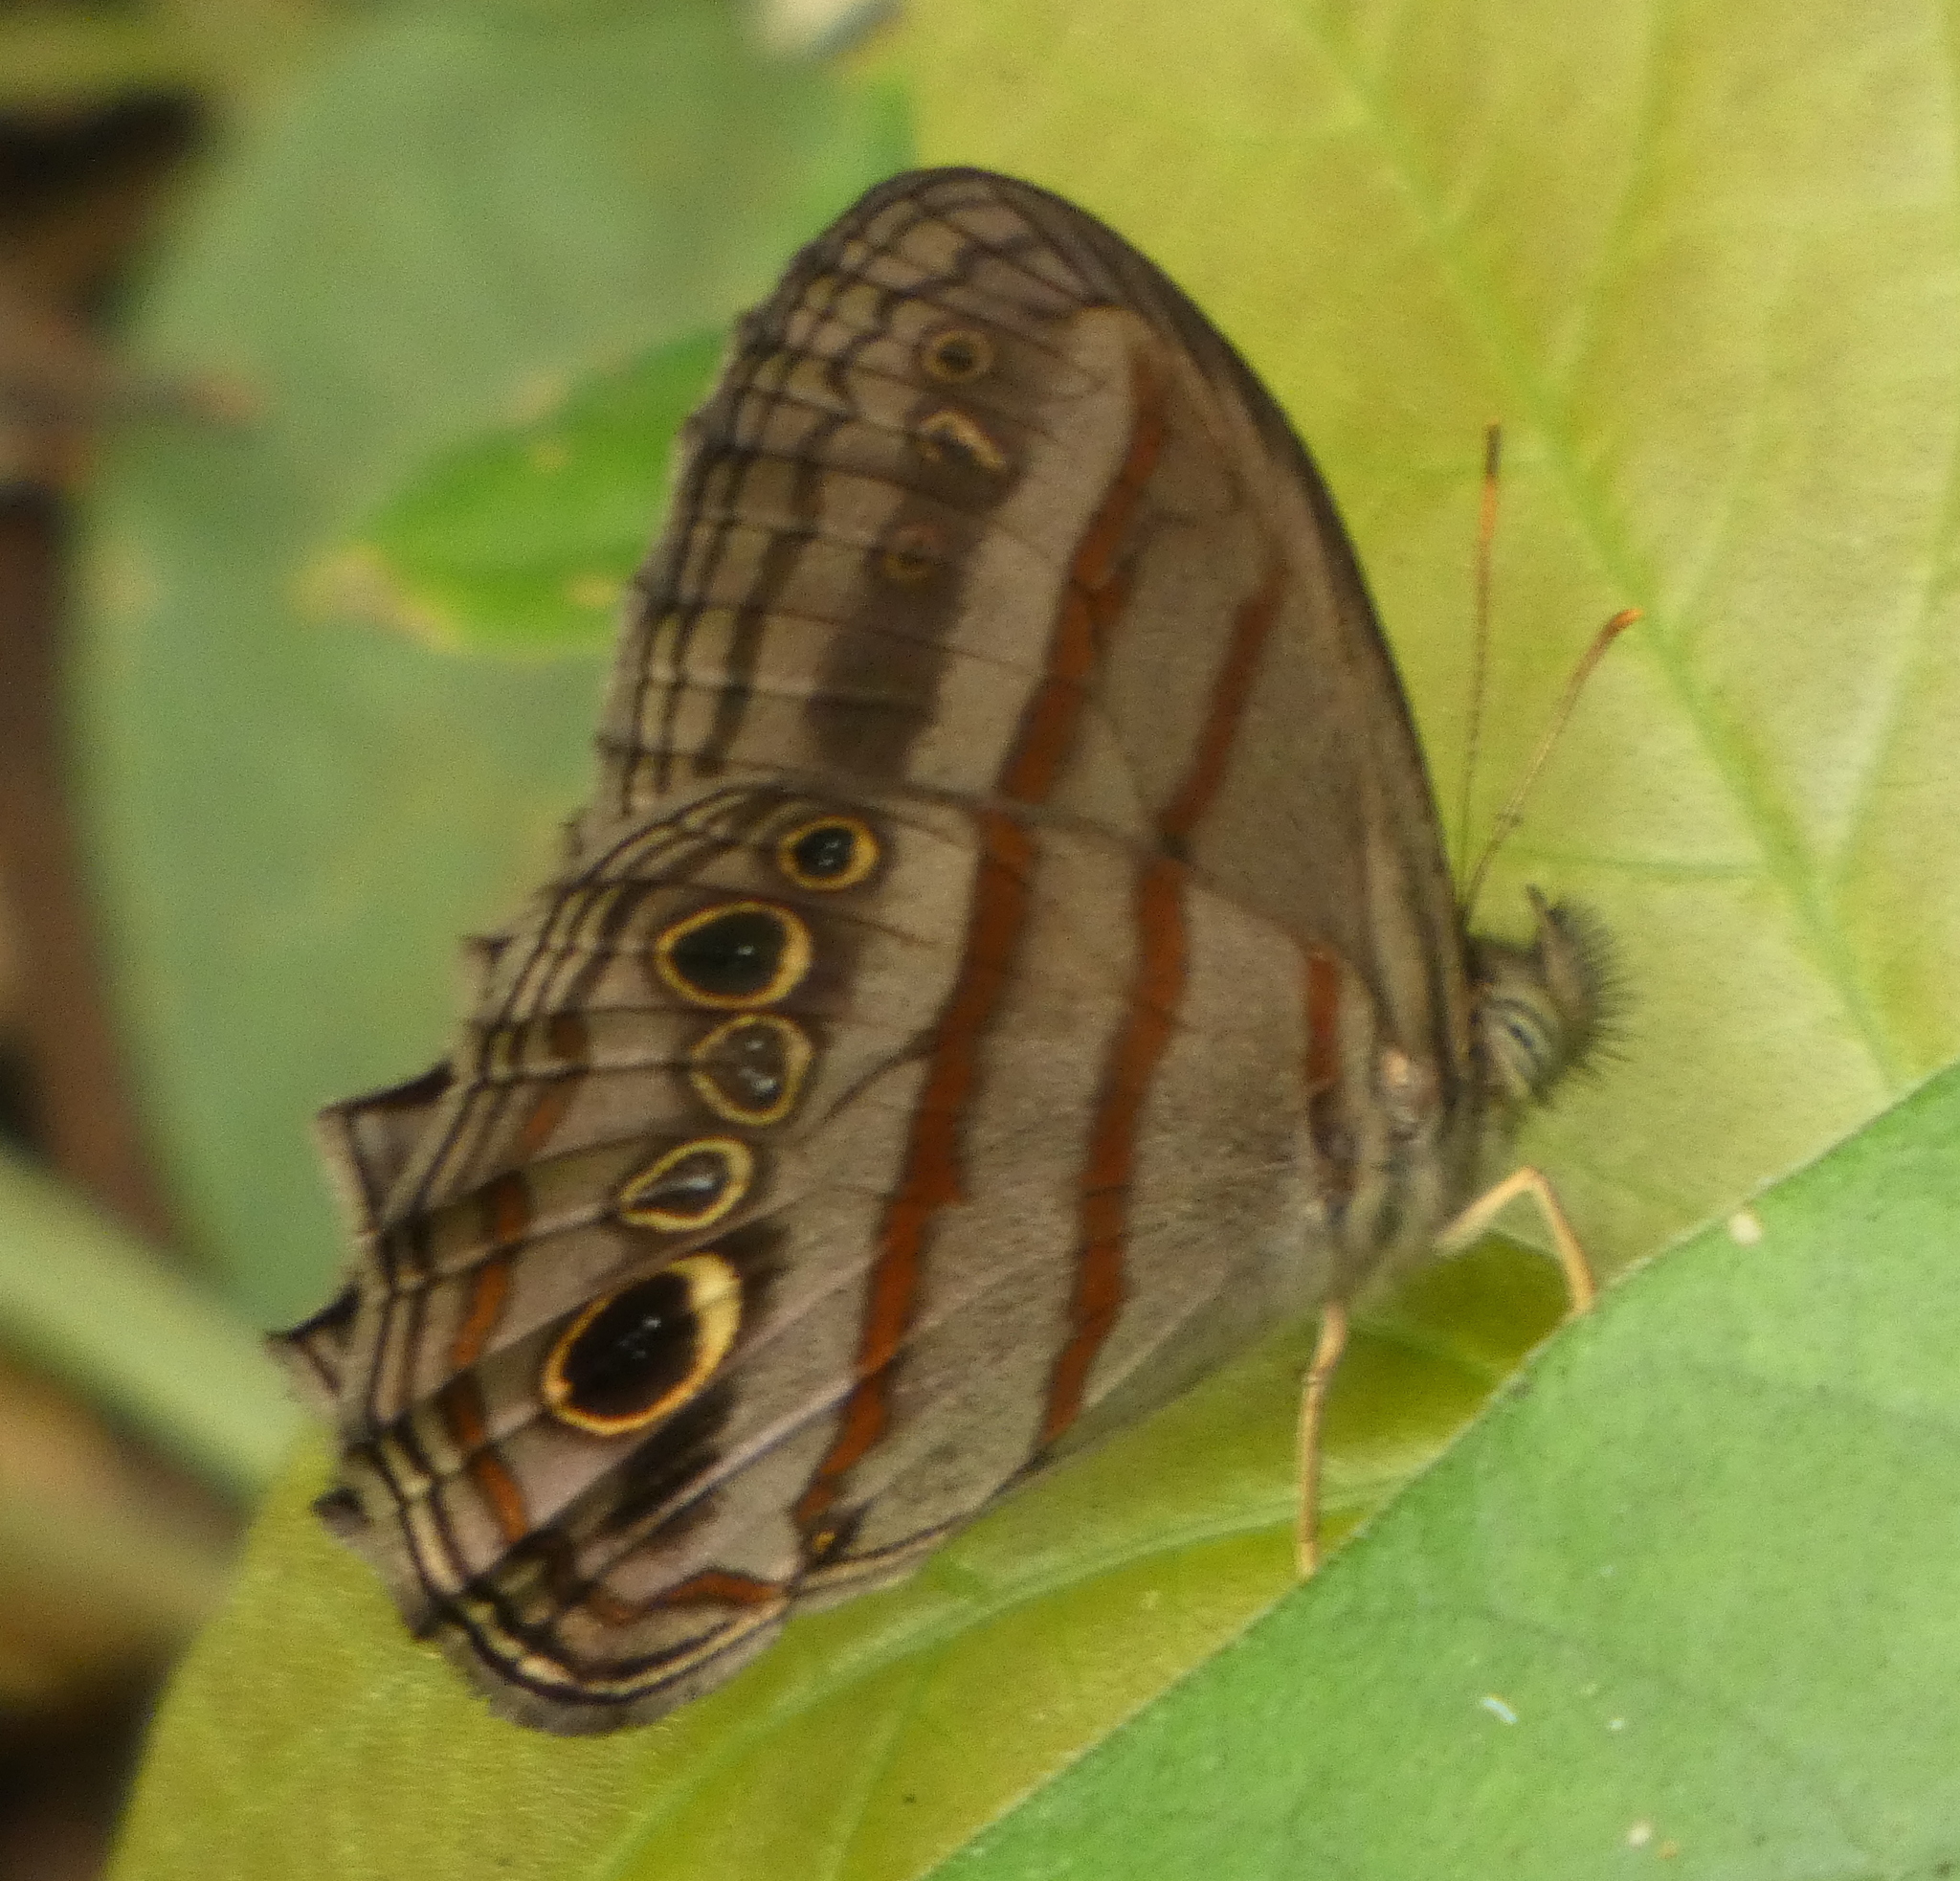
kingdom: Animalia
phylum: Arthropoda
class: Insecta
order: Lepidoptera
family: Nymphalidae
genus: Magneuptychia
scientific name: Magneuptychia libye
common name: Blue-gray satyr
